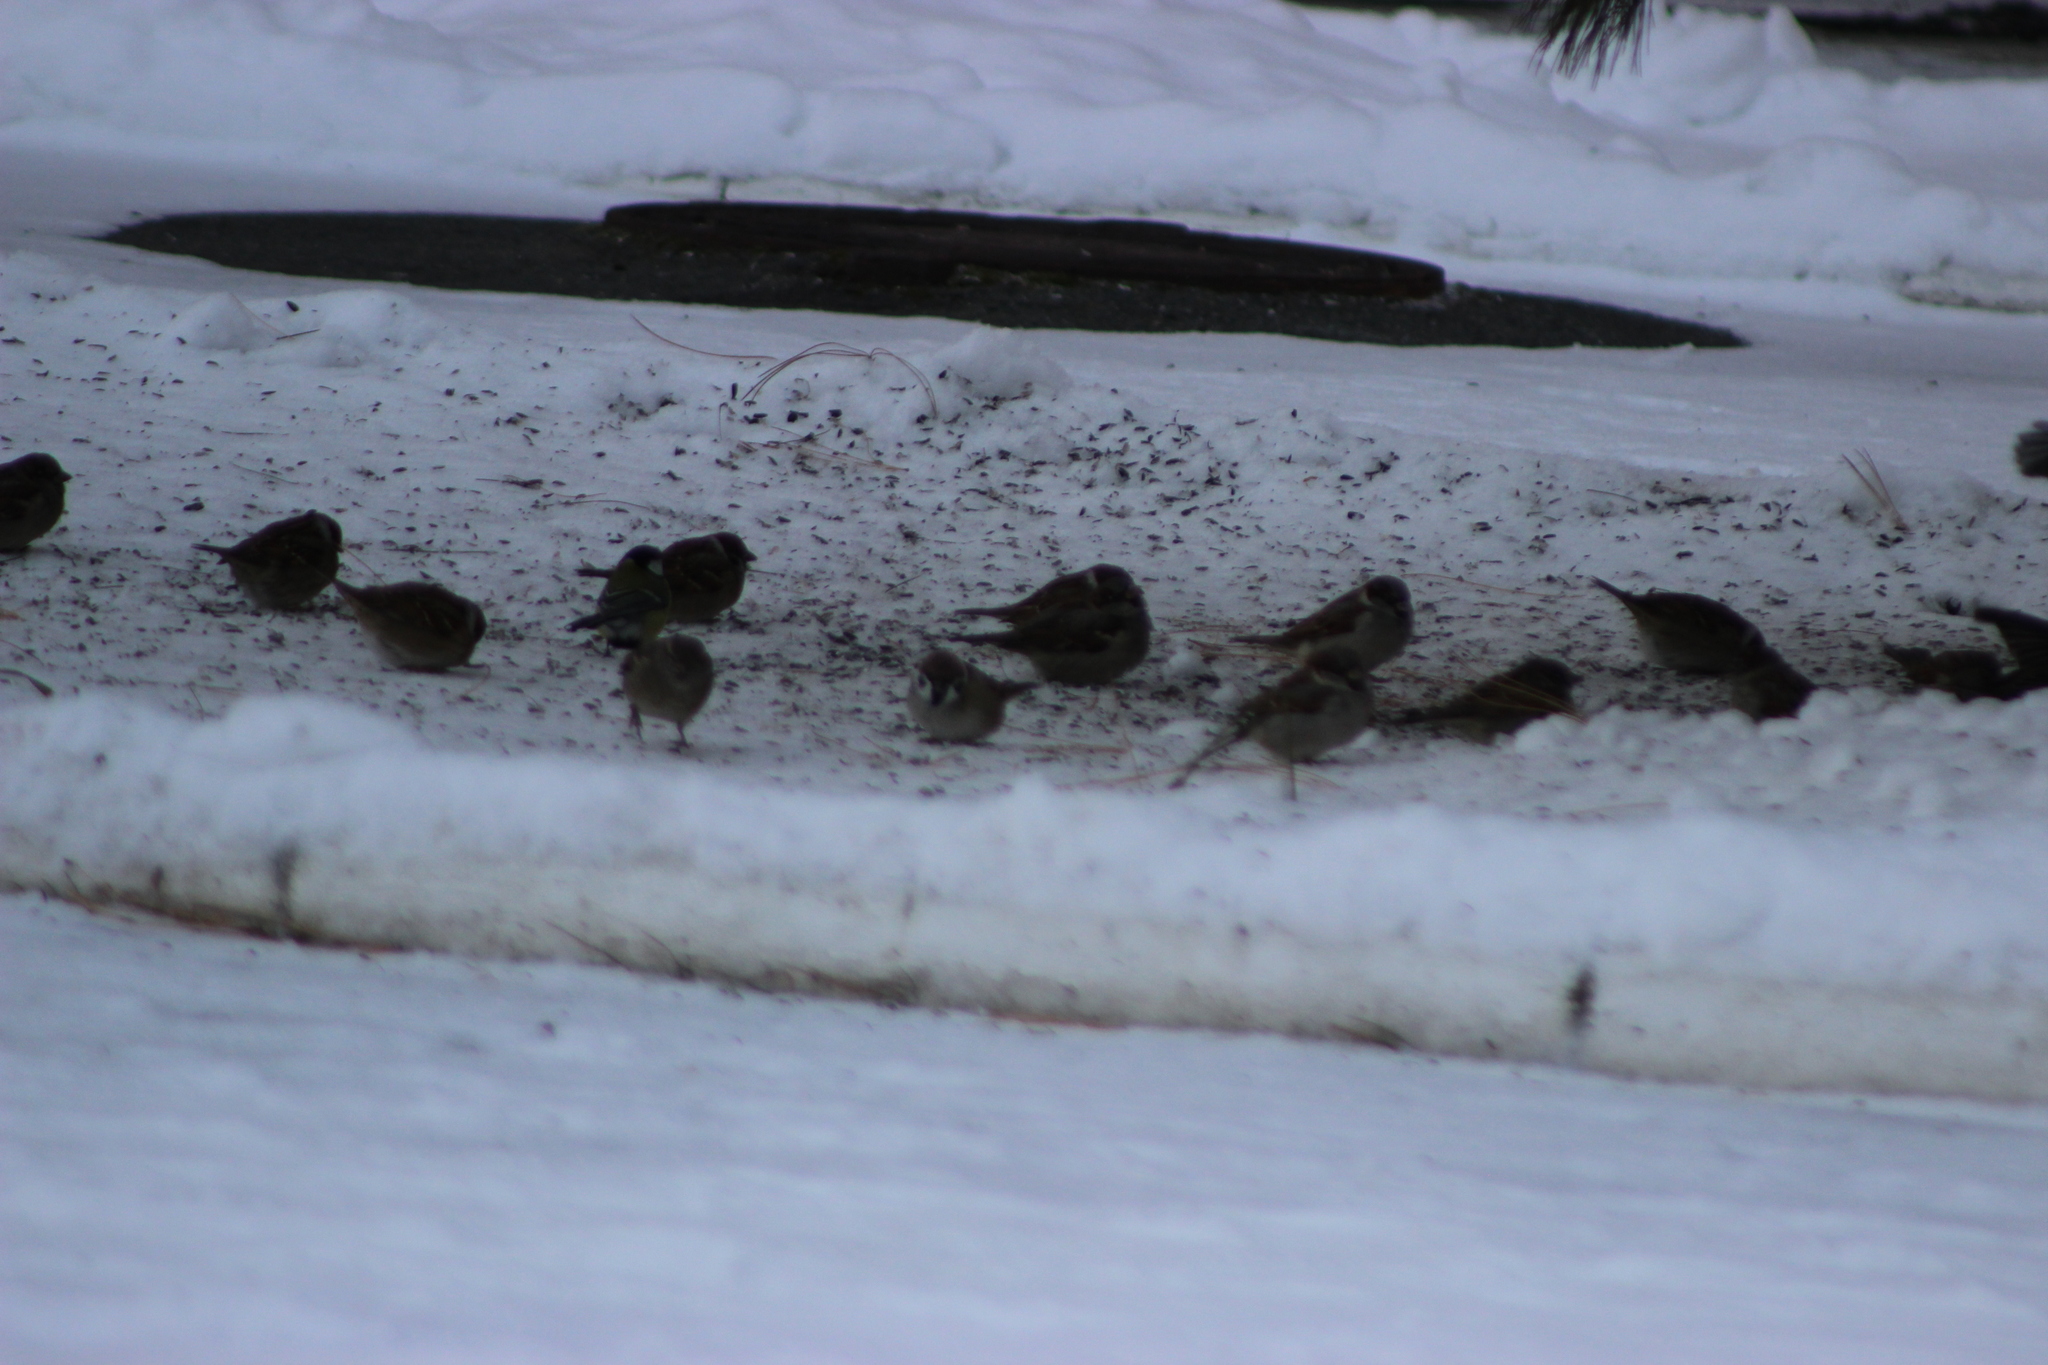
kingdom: Animalia
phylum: Chordata
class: Aves
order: Passeriformes
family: Passeridae
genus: Passer
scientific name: Passer montanus
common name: Eurasian tree sparrow
